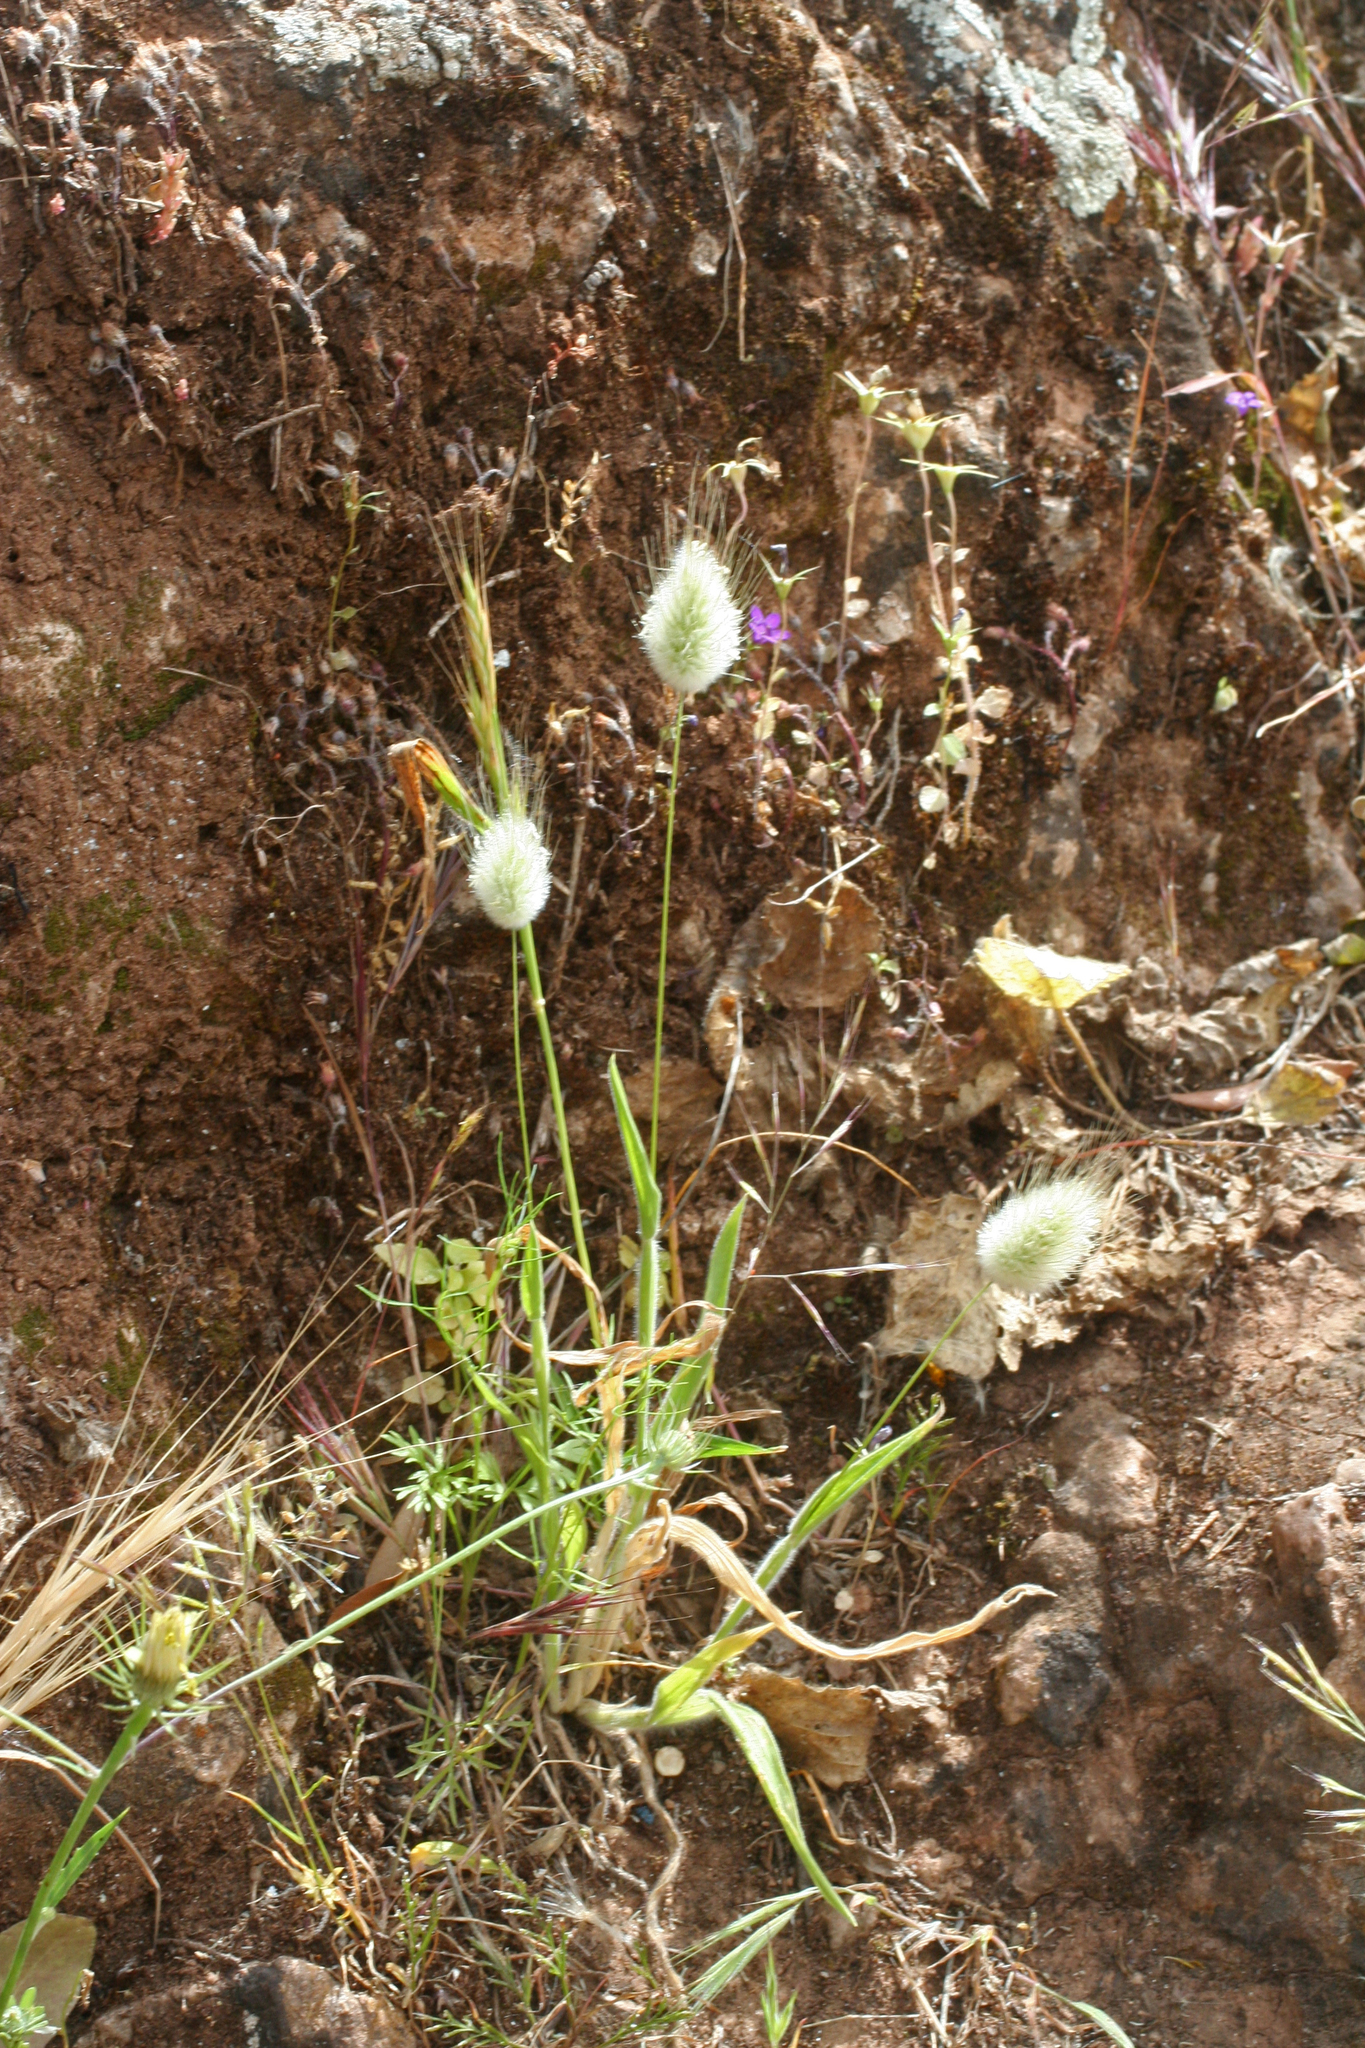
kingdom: Plantae
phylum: Tracheophyta
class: Liliopsida
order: Poales
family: Poaceae
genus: Lagurus
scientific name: Lagurus ovatus
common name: Hare's-tail
